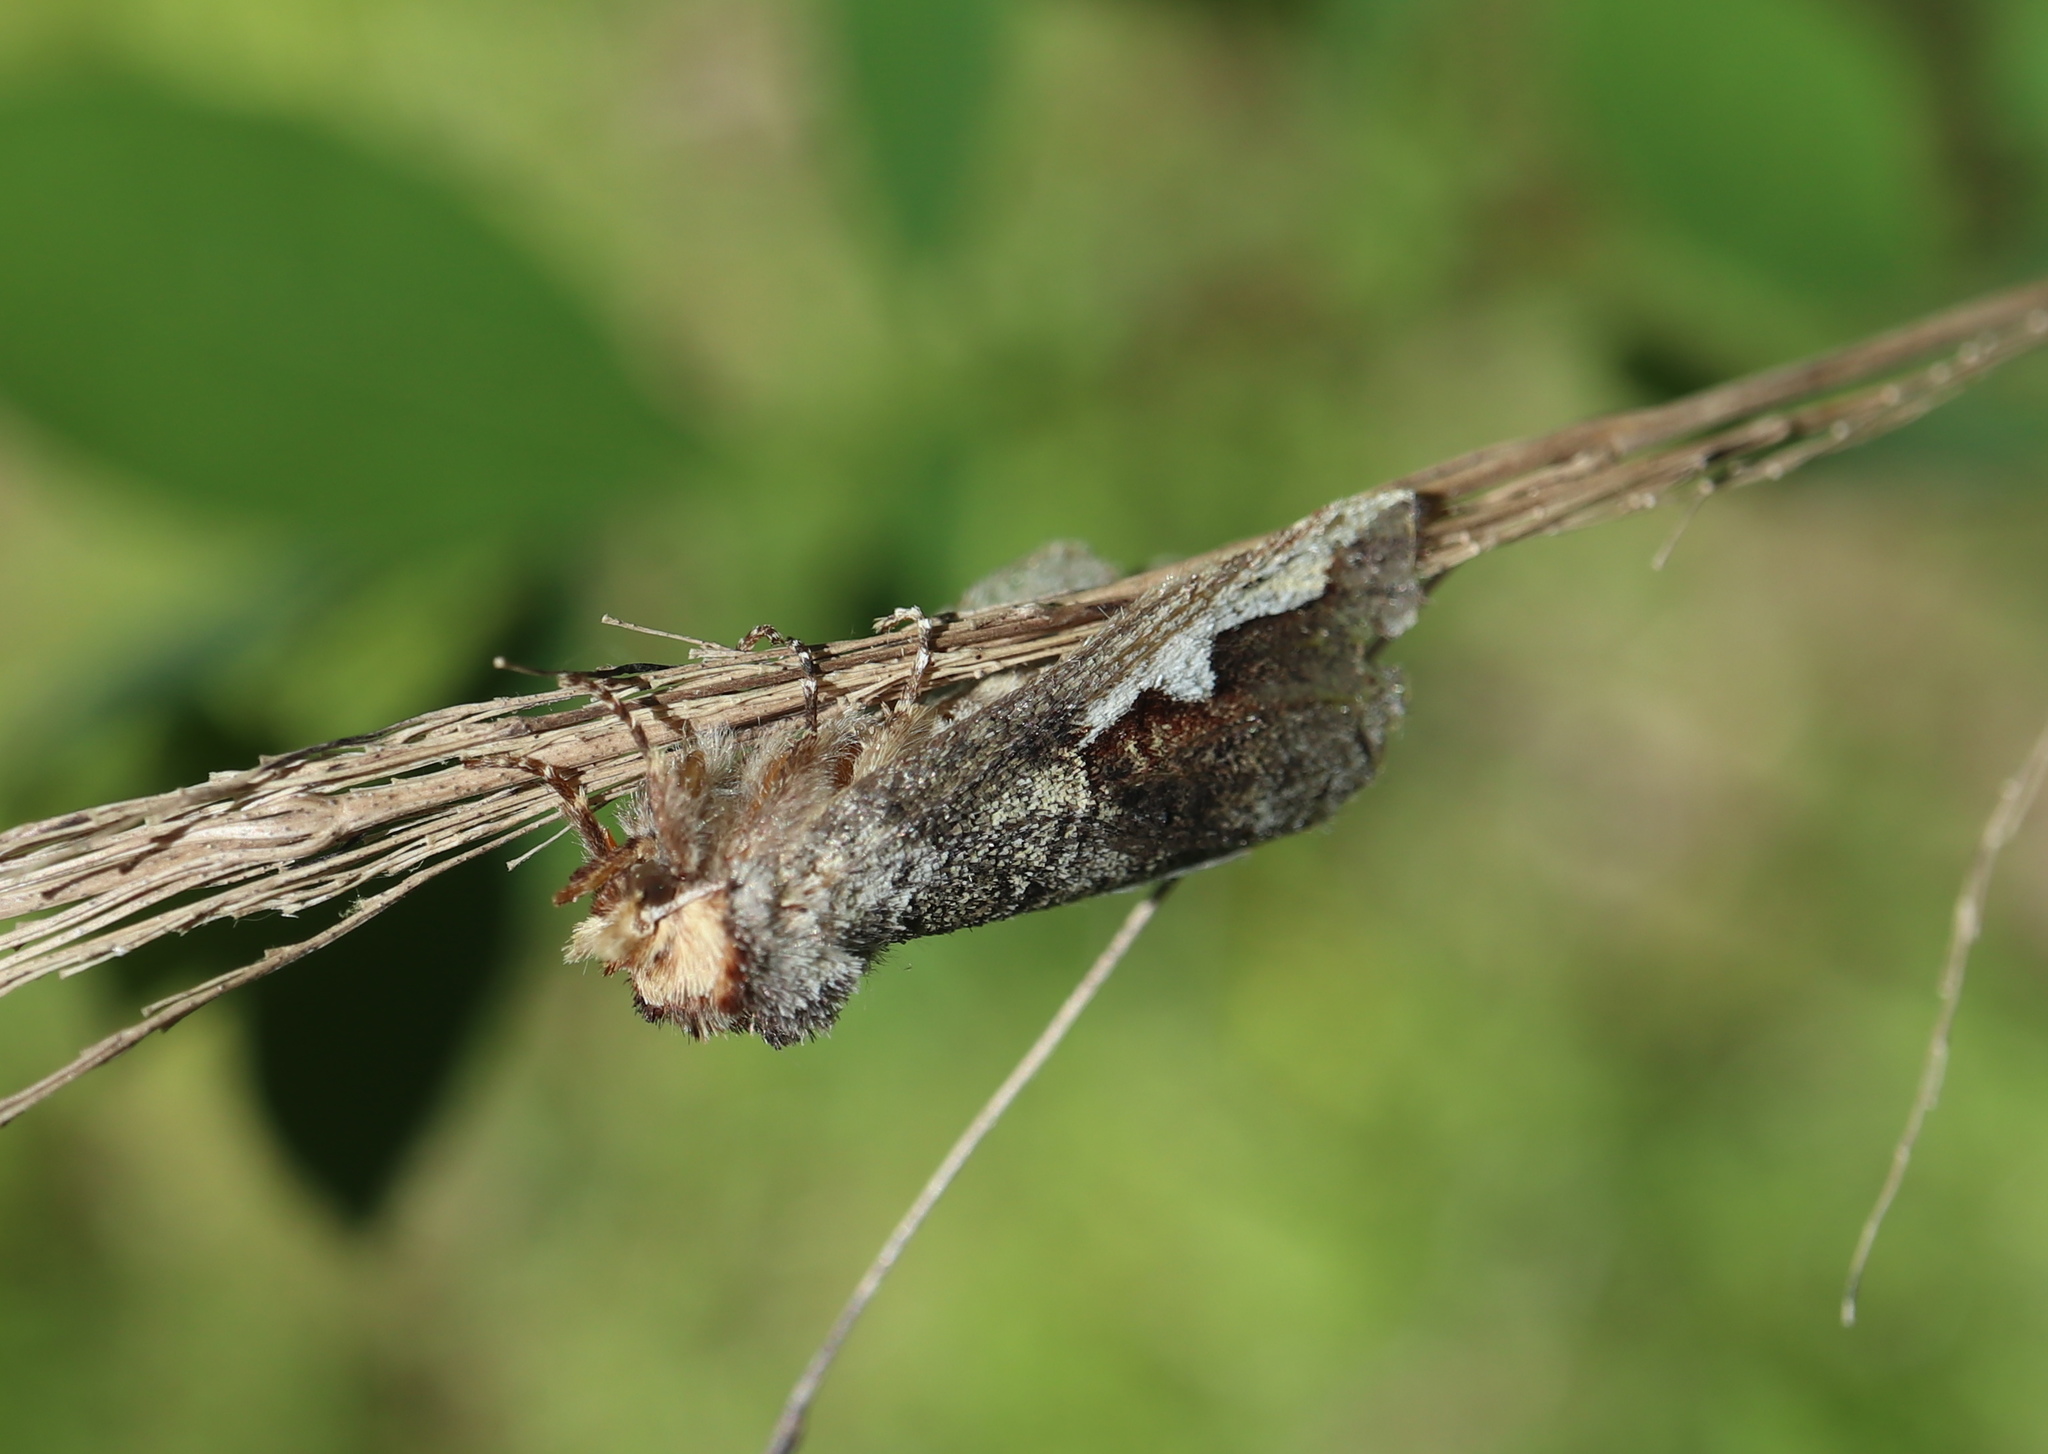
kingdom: Animalia
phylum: Arthropoda
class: Insecta
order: Lepidoptera
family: Notodontidae
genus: Symmerista
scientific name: Symmerista albifrons
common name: White-headed prominent
